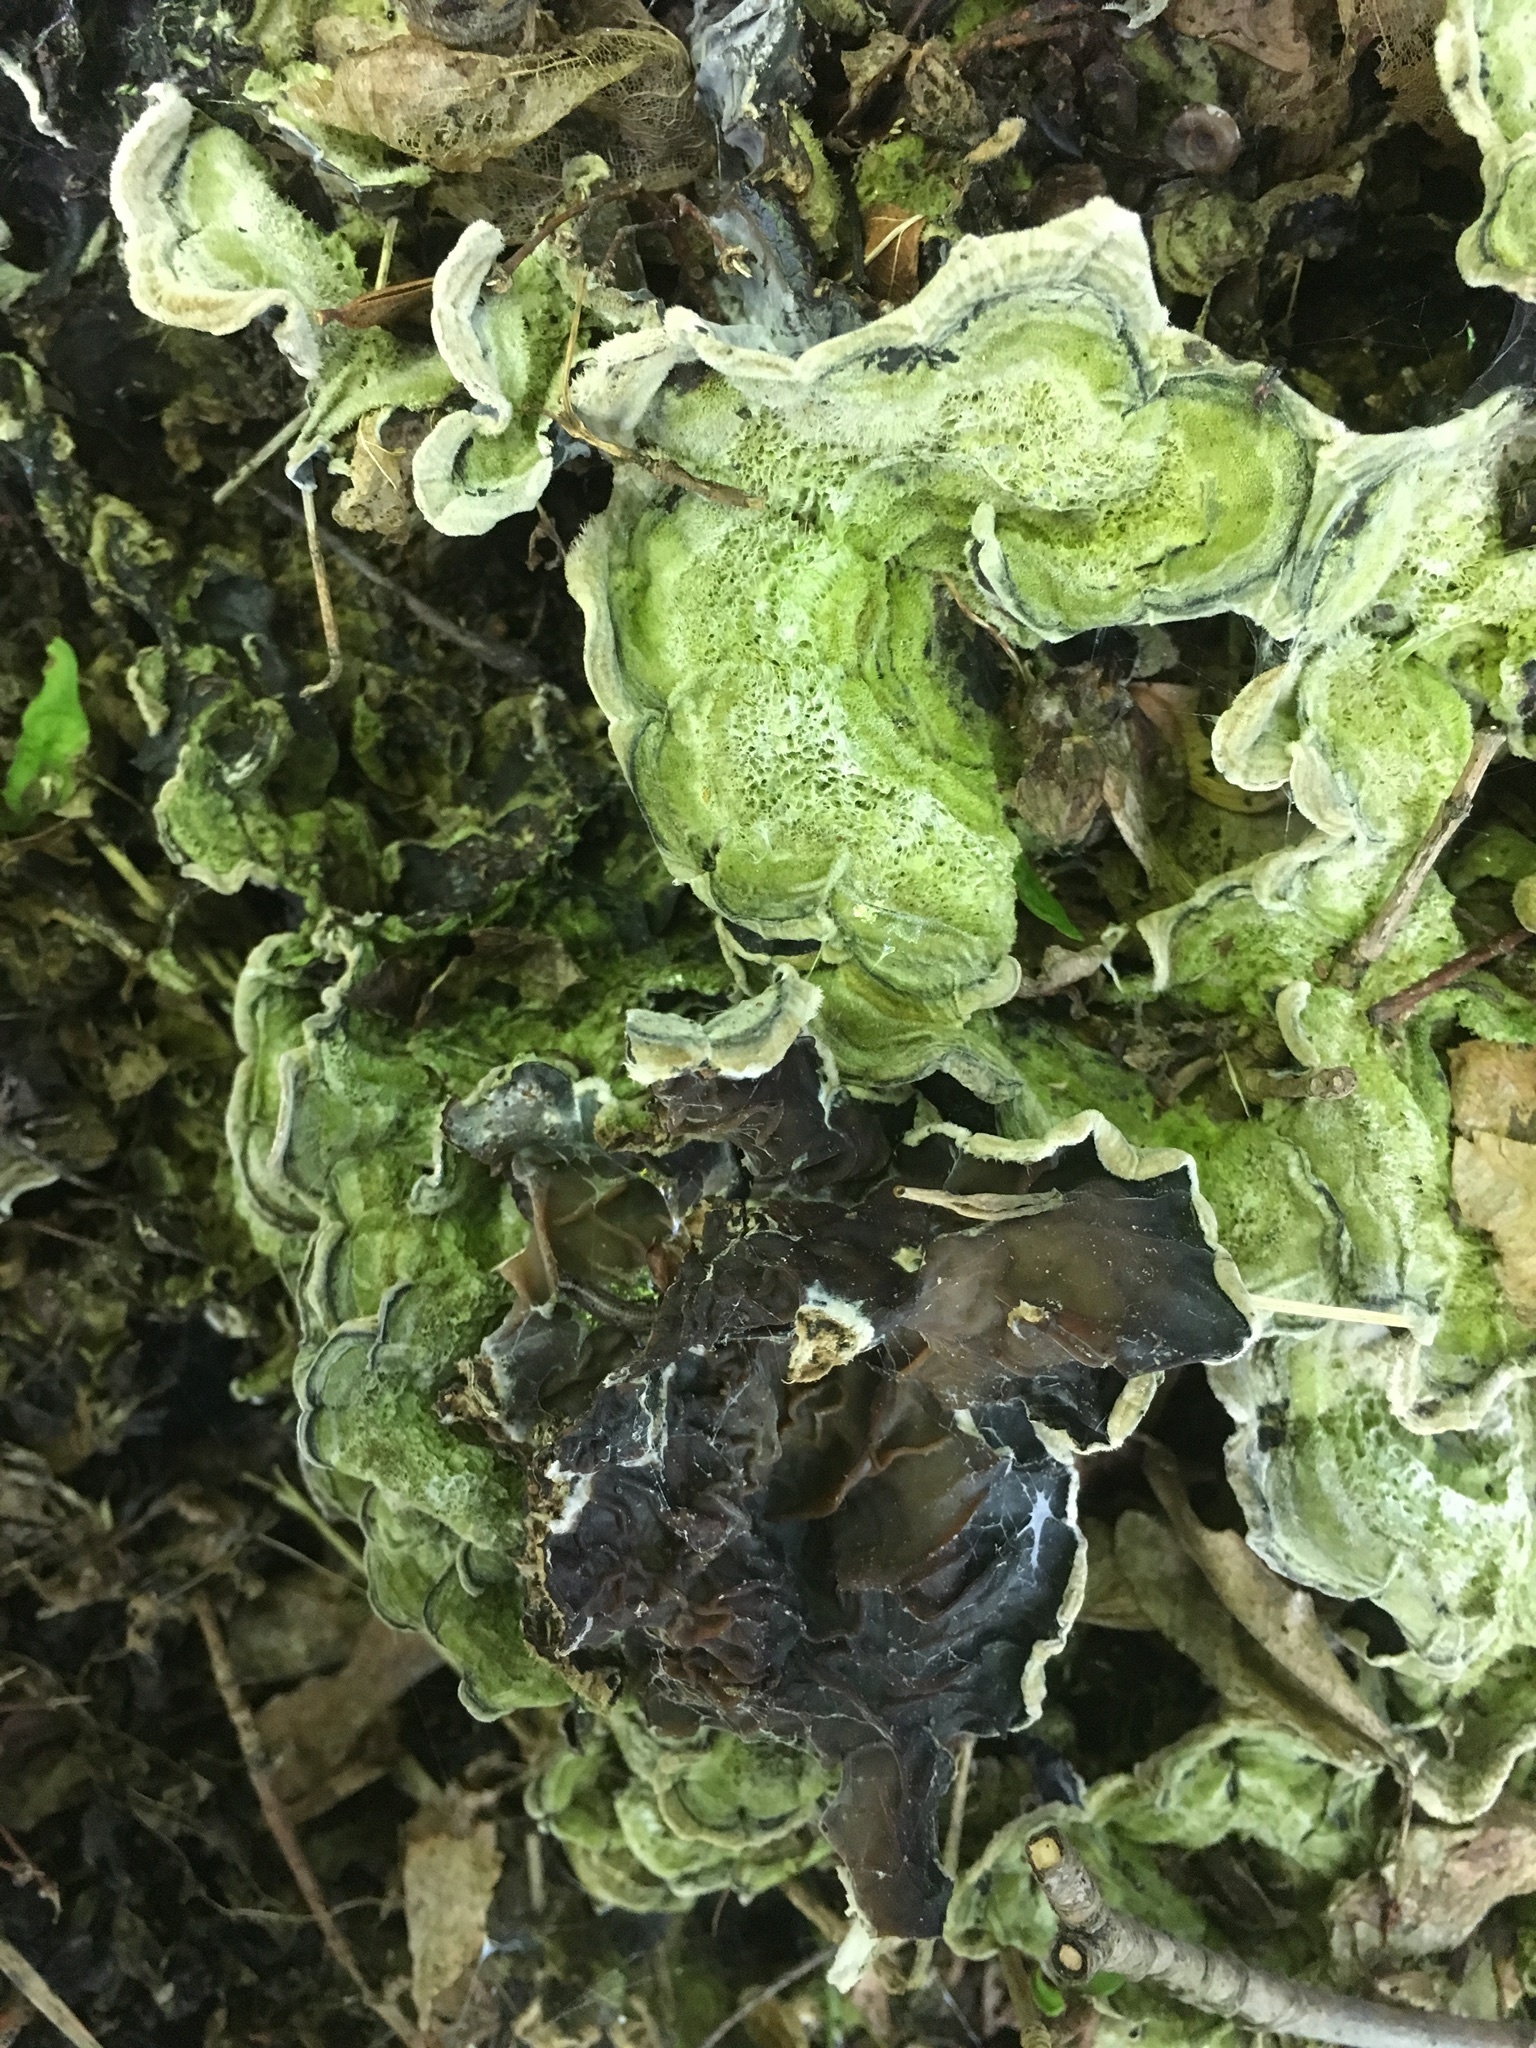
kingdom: Fungi
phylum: Basidiomycota
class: Agaricomycetes
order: Auriculariales
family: Auriculariaceae
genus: Auricularia
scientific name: Auricularia mesenterica
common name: Tripe fungus
